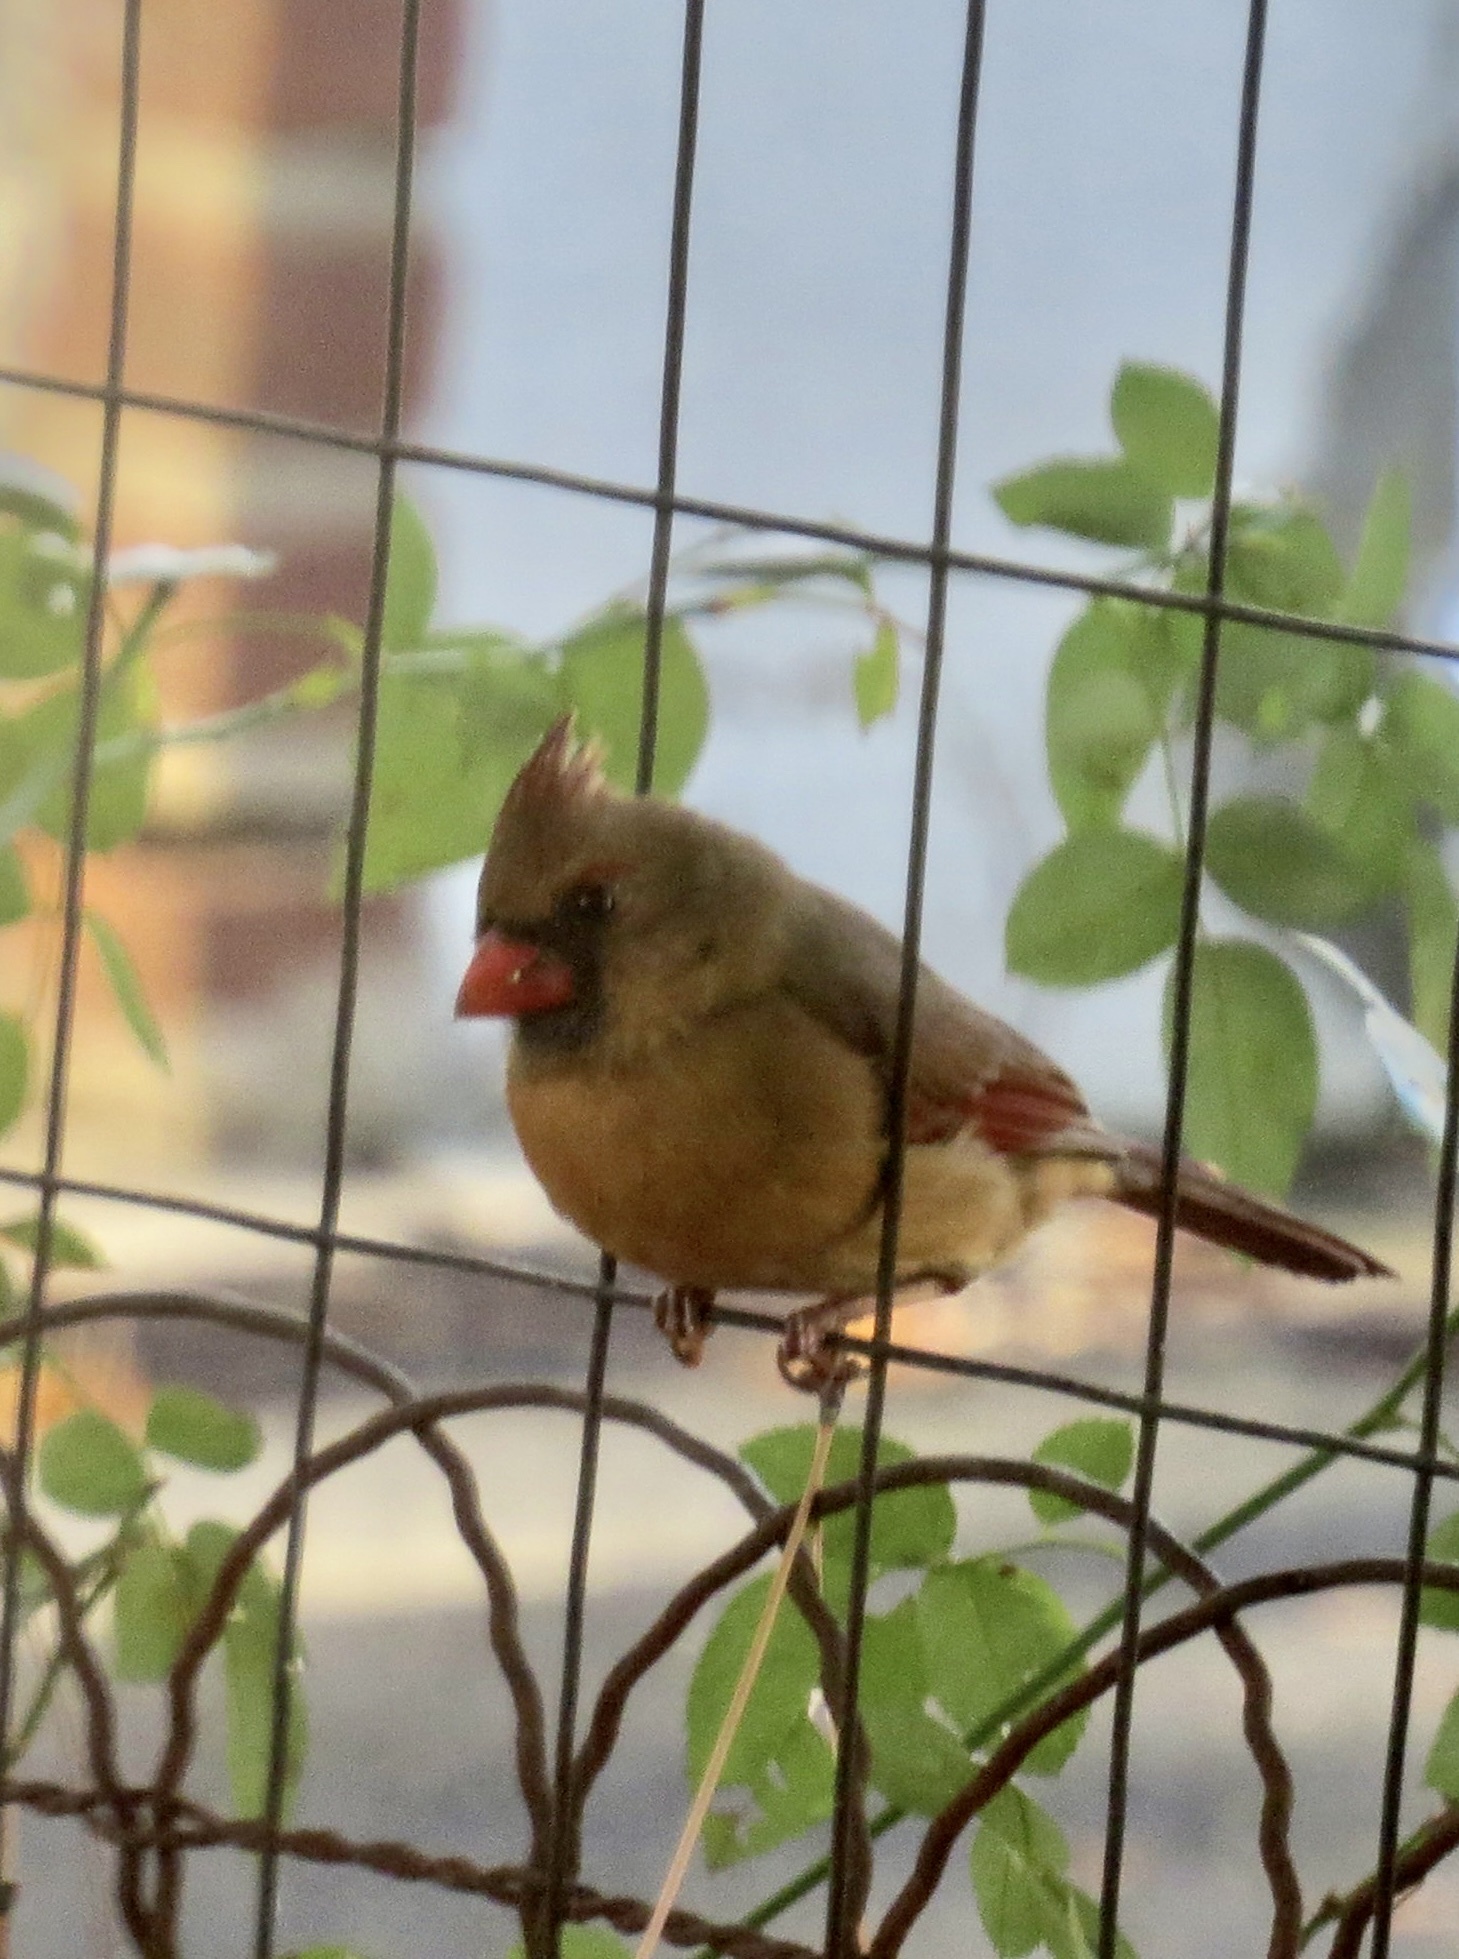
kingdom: Animalia
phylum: Chordata
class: Aves
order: Passeriformes
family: Cardinalidae
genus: Cardinalis
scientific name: Cardinalis cardinalis
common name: Northern cardinal
